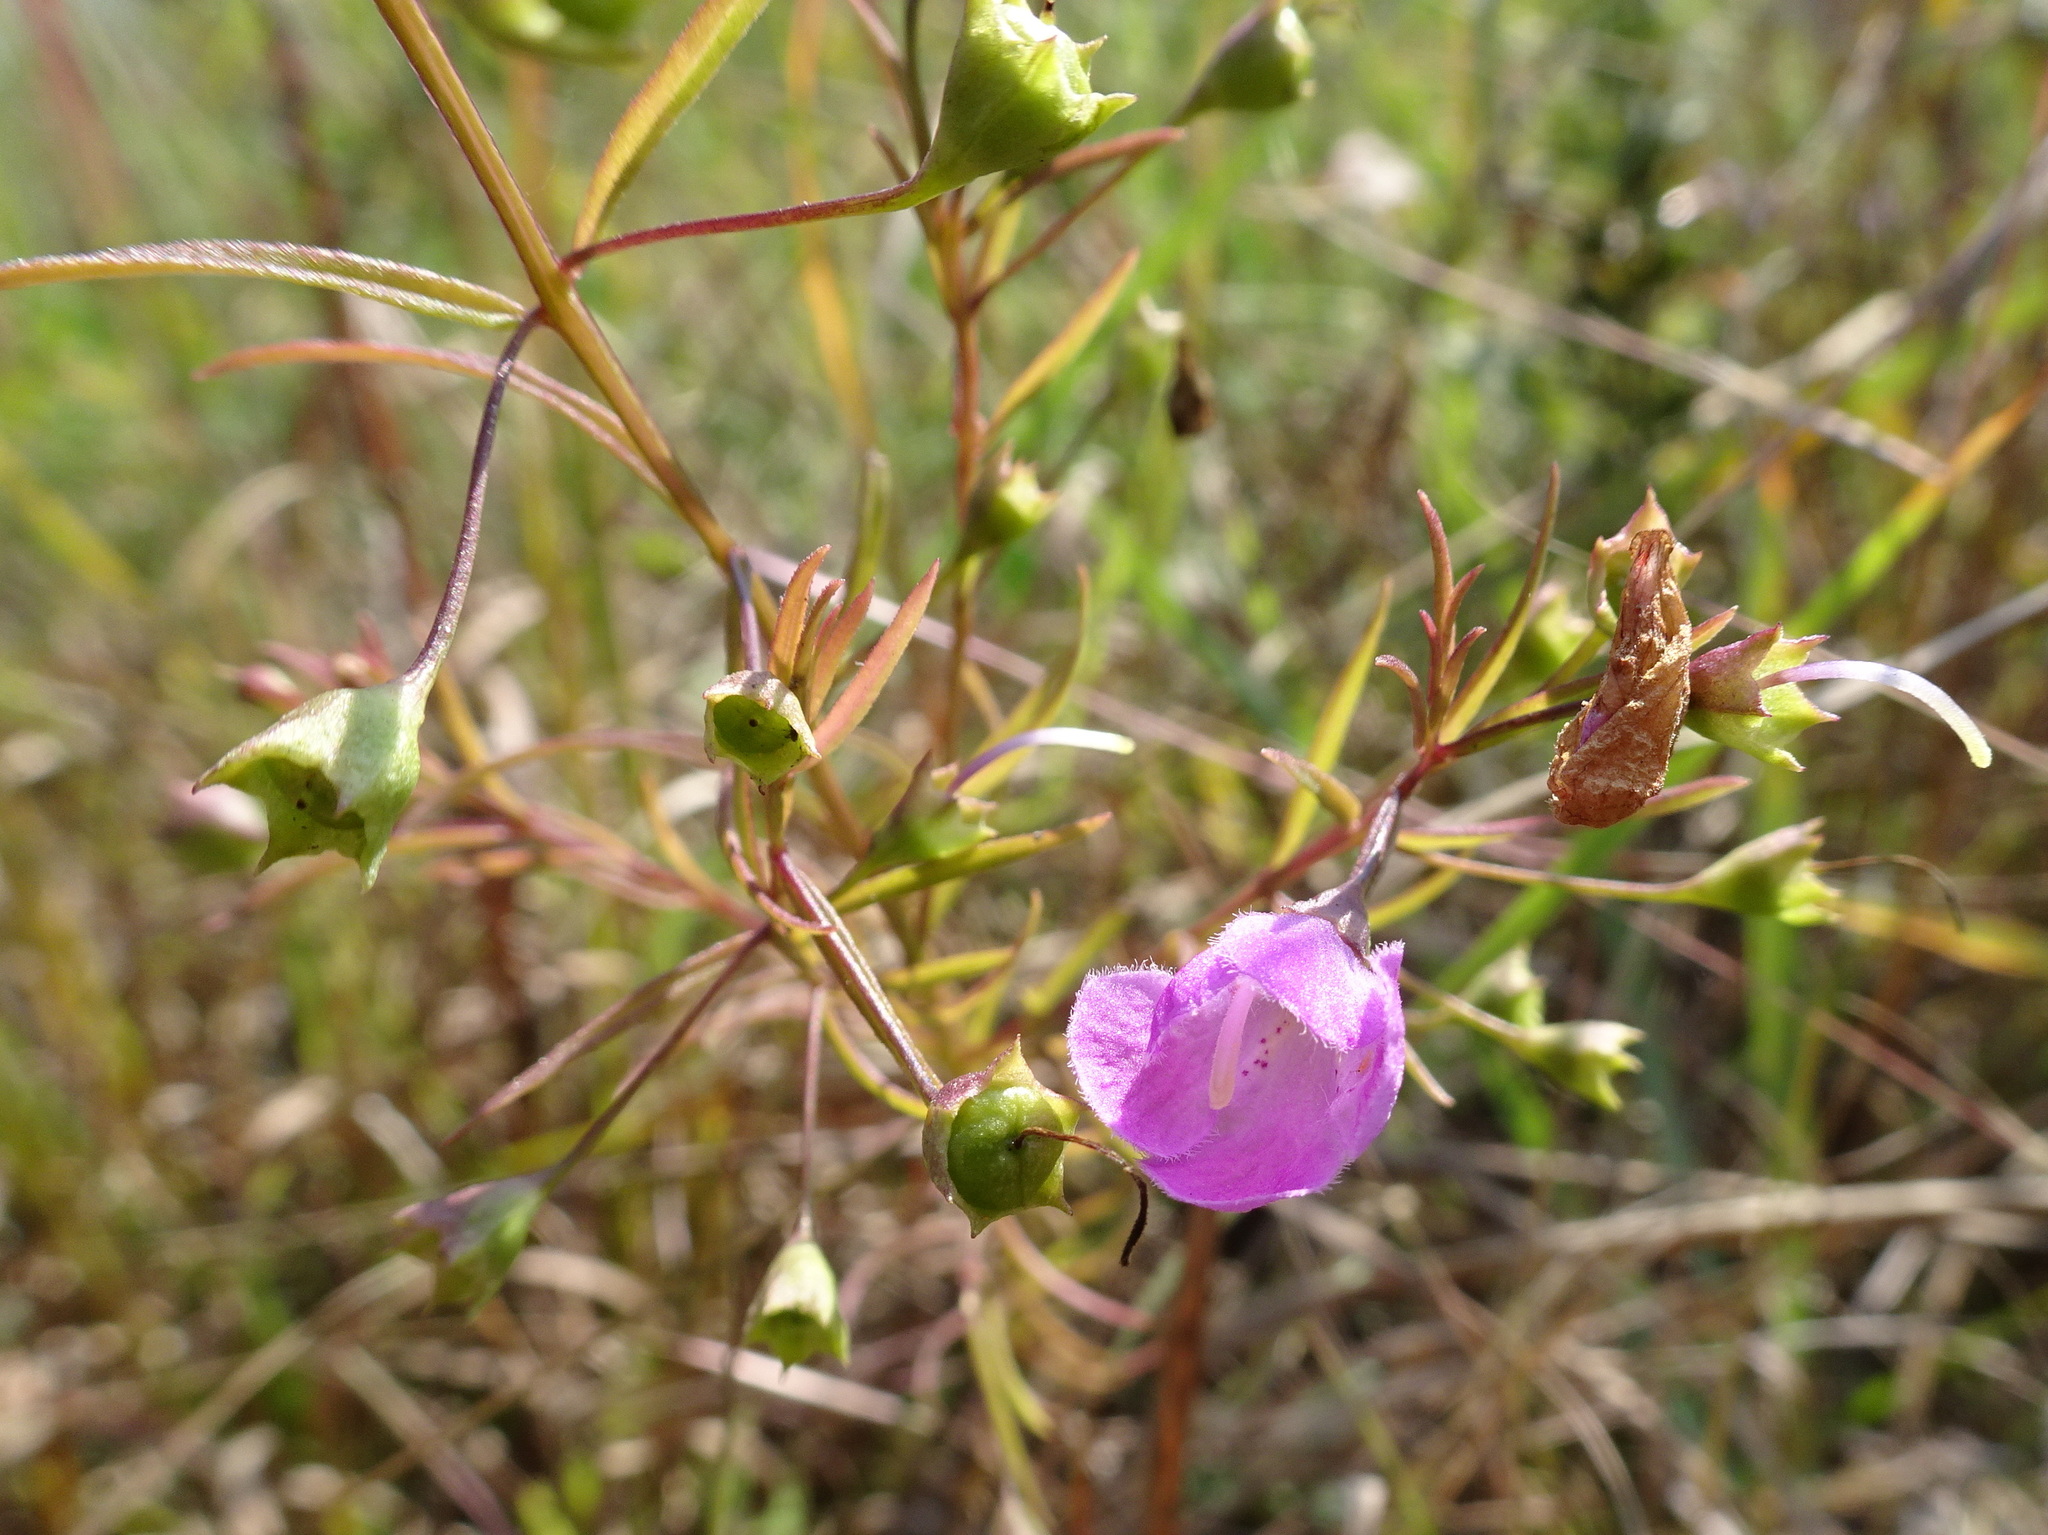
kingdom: Plantae
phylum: Tracheophyta
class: Magnoliopsida
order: Lamiales
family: Orobanchaceae
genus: Agalinis
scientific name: Agalinis tenuifolia
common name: Slender agalinis
